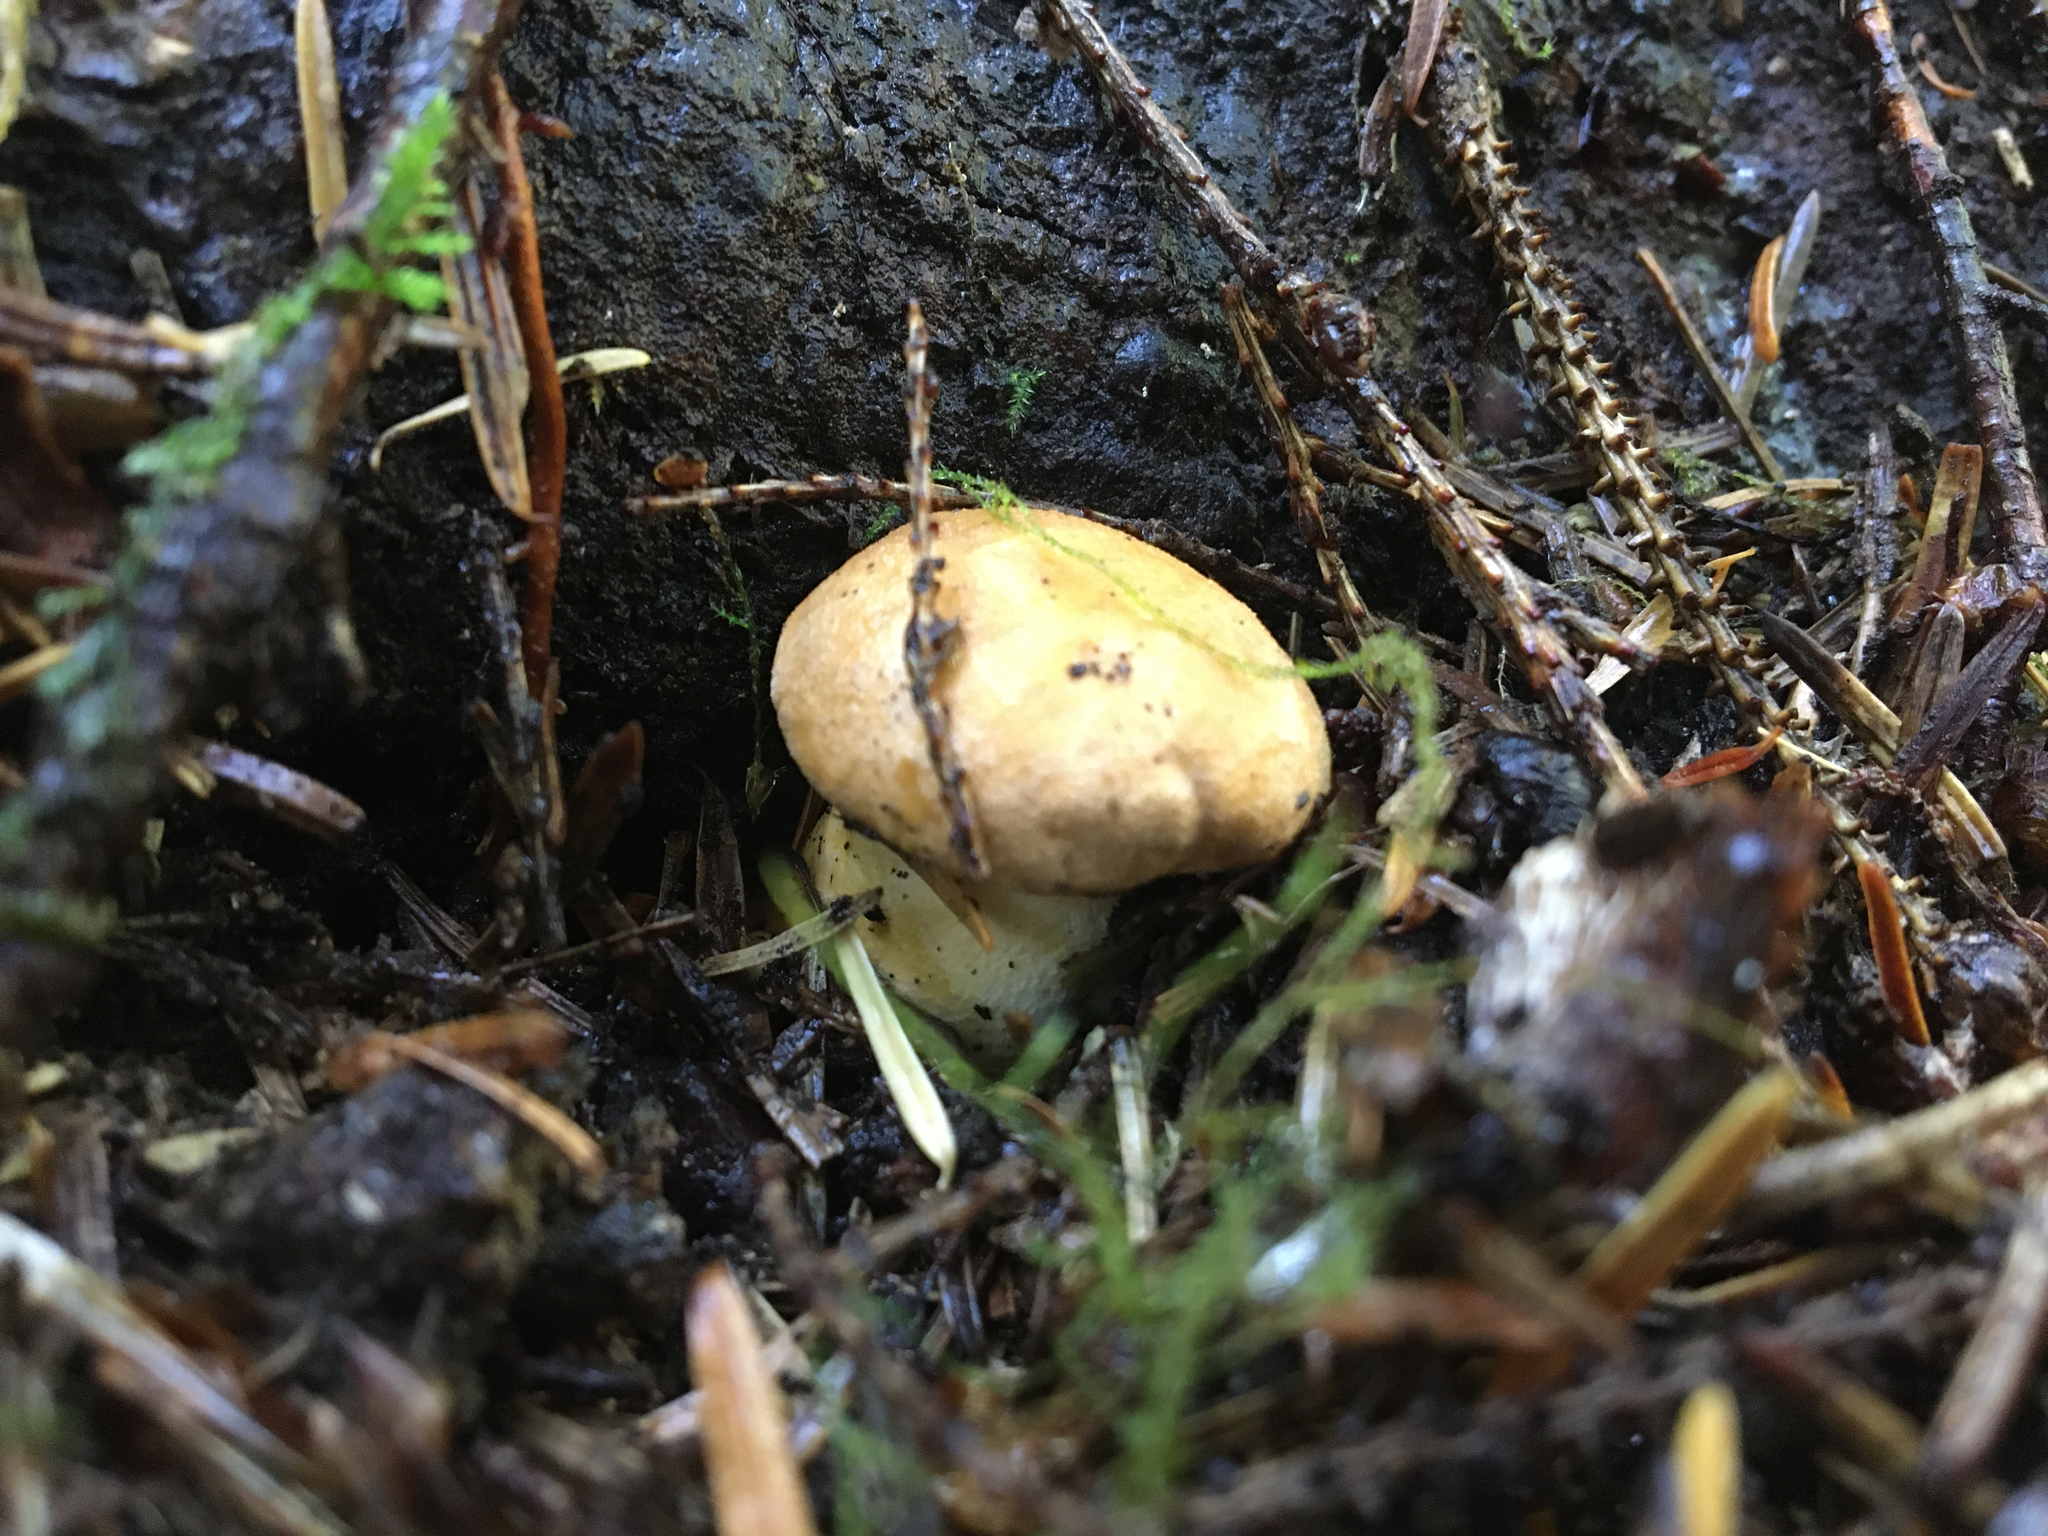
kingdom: Fungi
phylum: Basidiomycota
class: Agaricomycetes
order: Cantharellales
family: Hydnaceae
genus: Cantharellus
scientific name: Cantharellus formosus
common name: Pacific golden chanterelle
